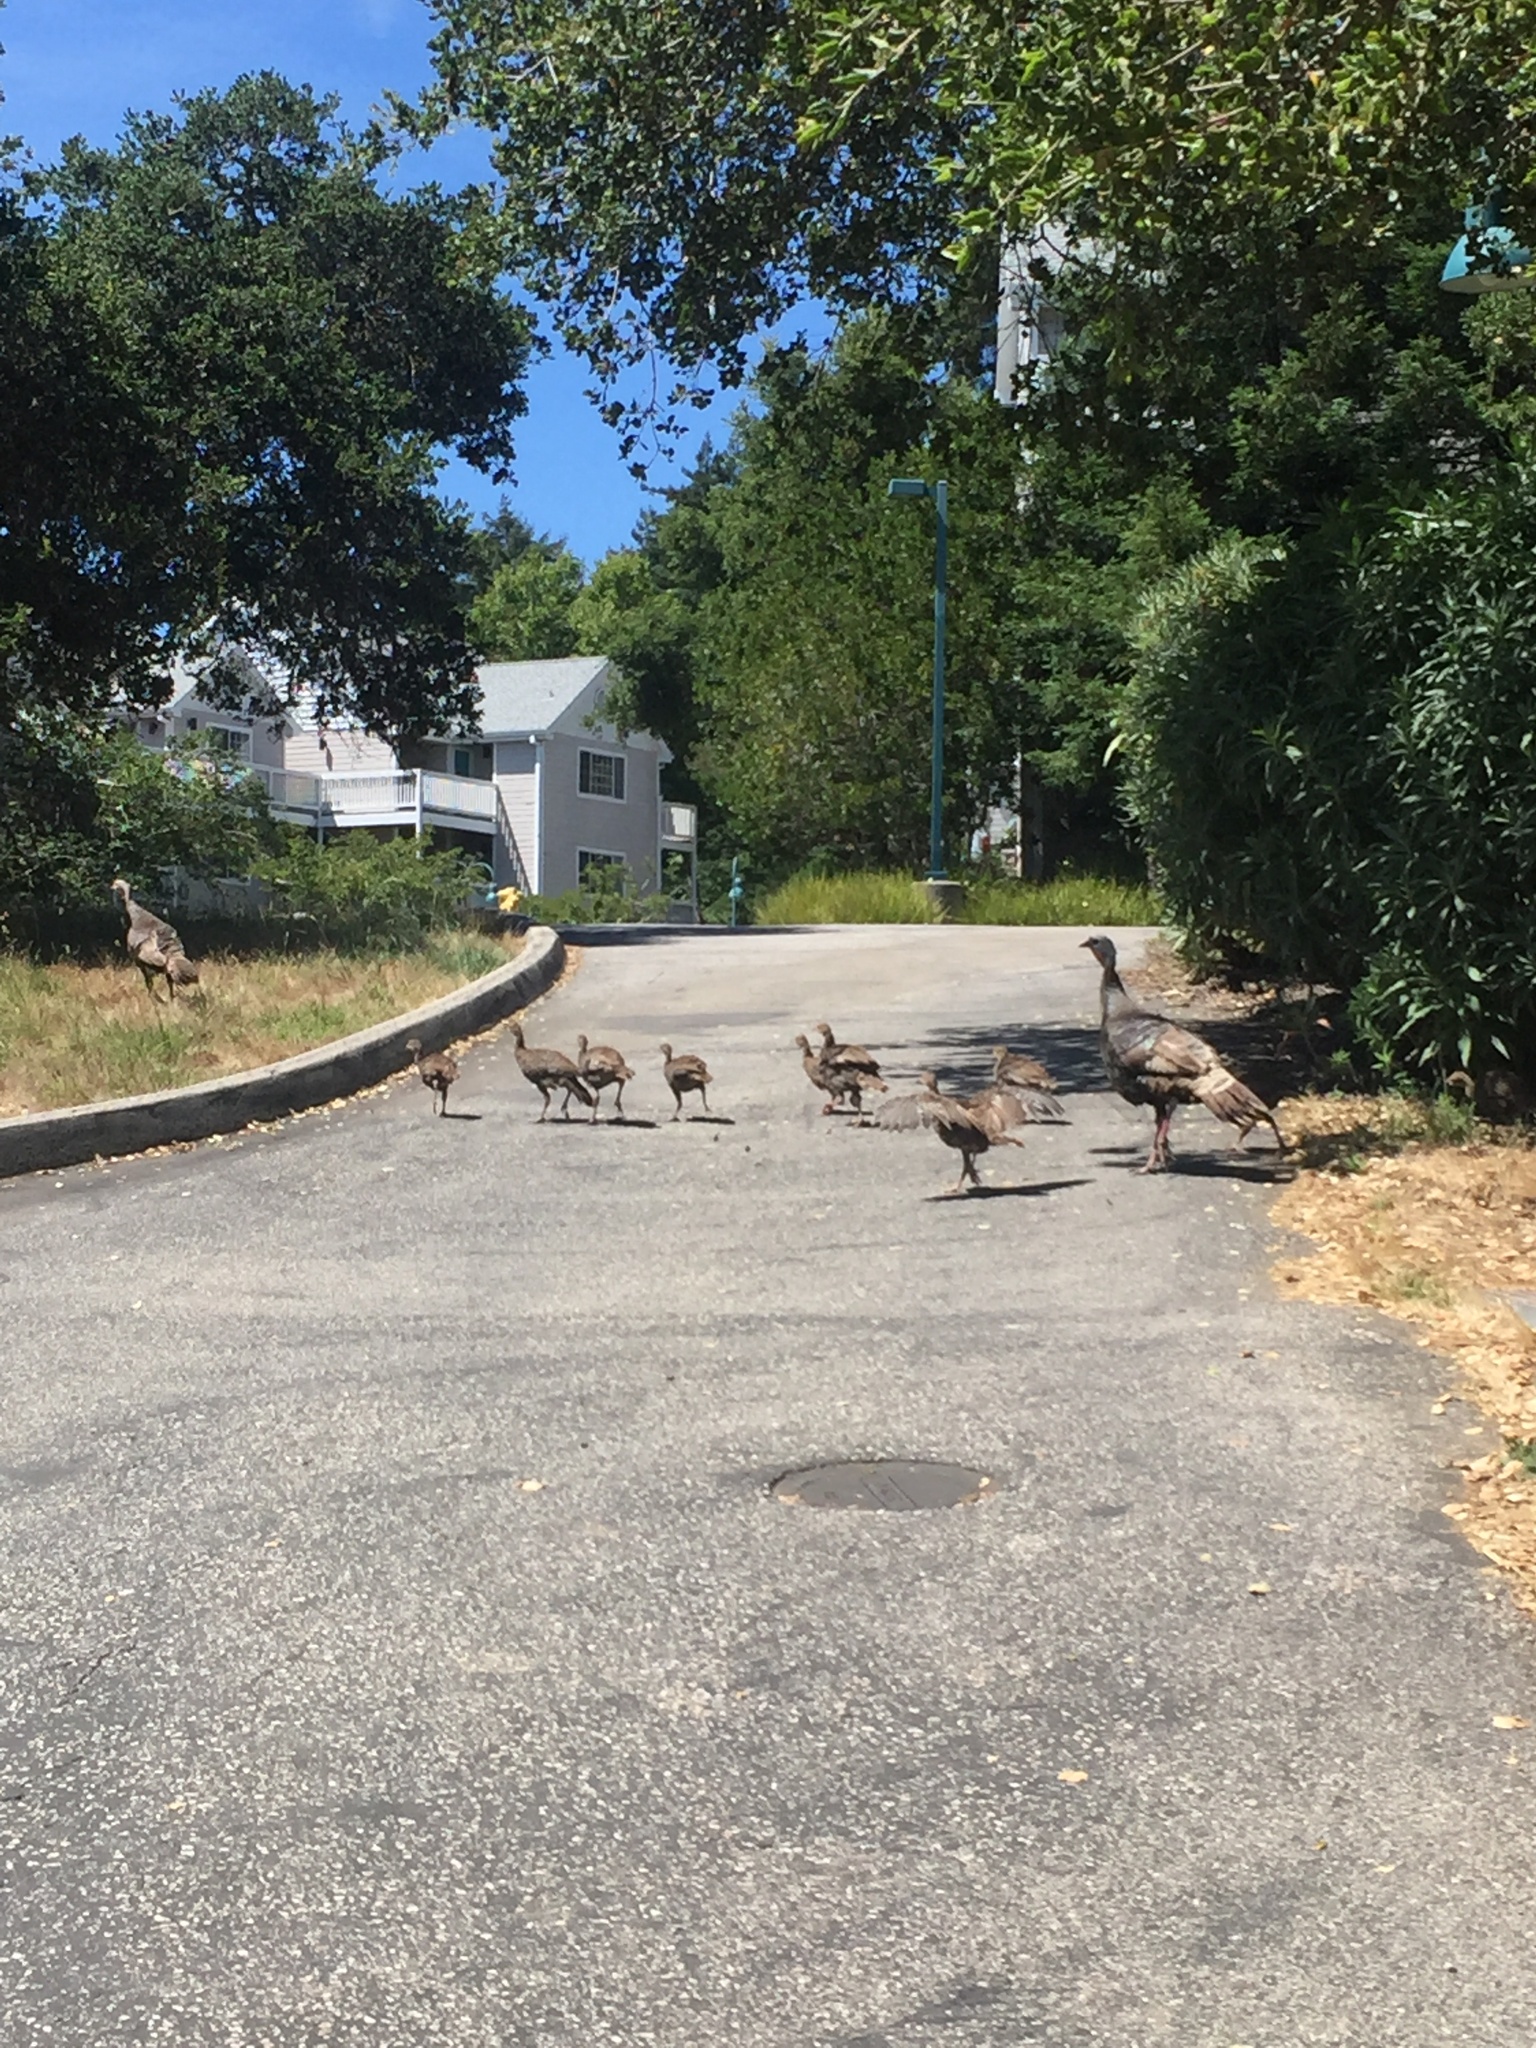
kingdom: Animalia
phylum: Chordata
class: Aves
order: Galliformes
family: Phasianidae
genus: Meleagris
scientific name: Meleagris gallopavo
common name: Wild turkey
